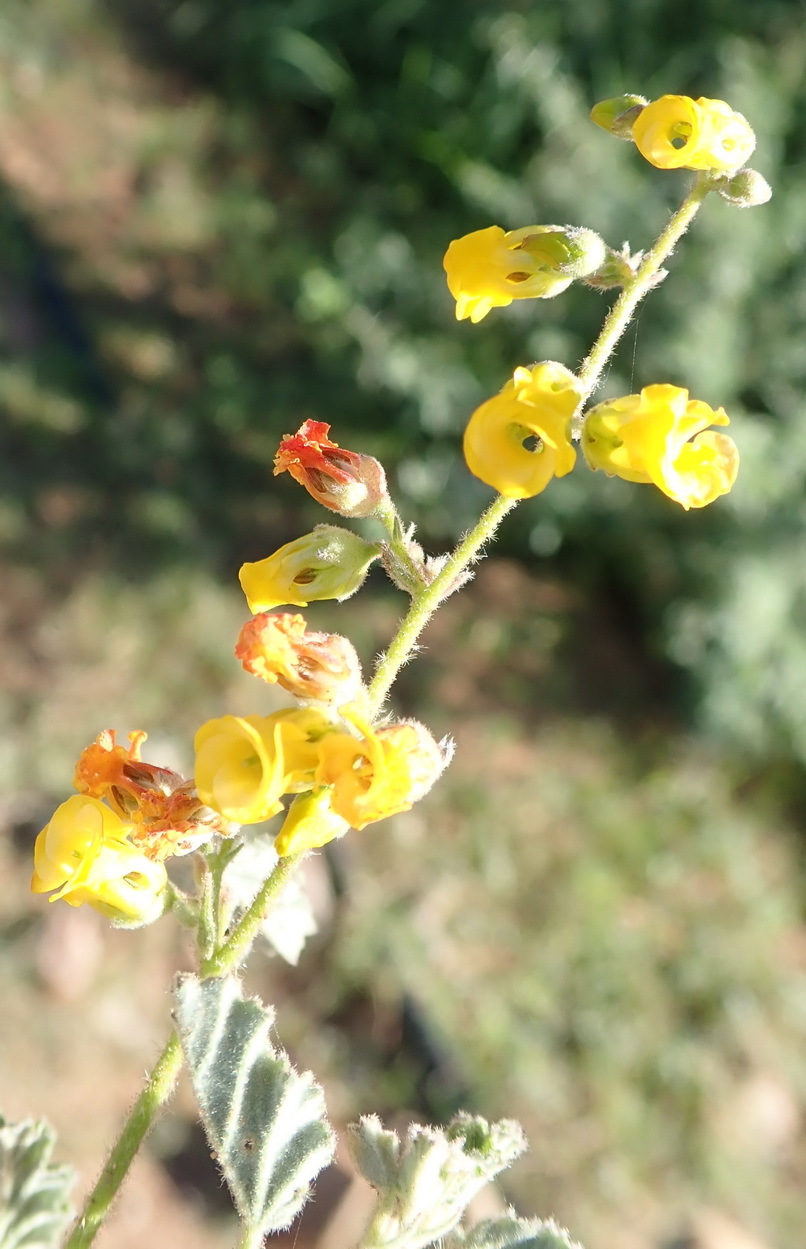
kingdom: Plantae
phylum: Tracheophyta
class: Magnoliopsida
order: Malvales
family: Malvaceae
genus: Hermannia
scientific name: Hermannia althaeoides
